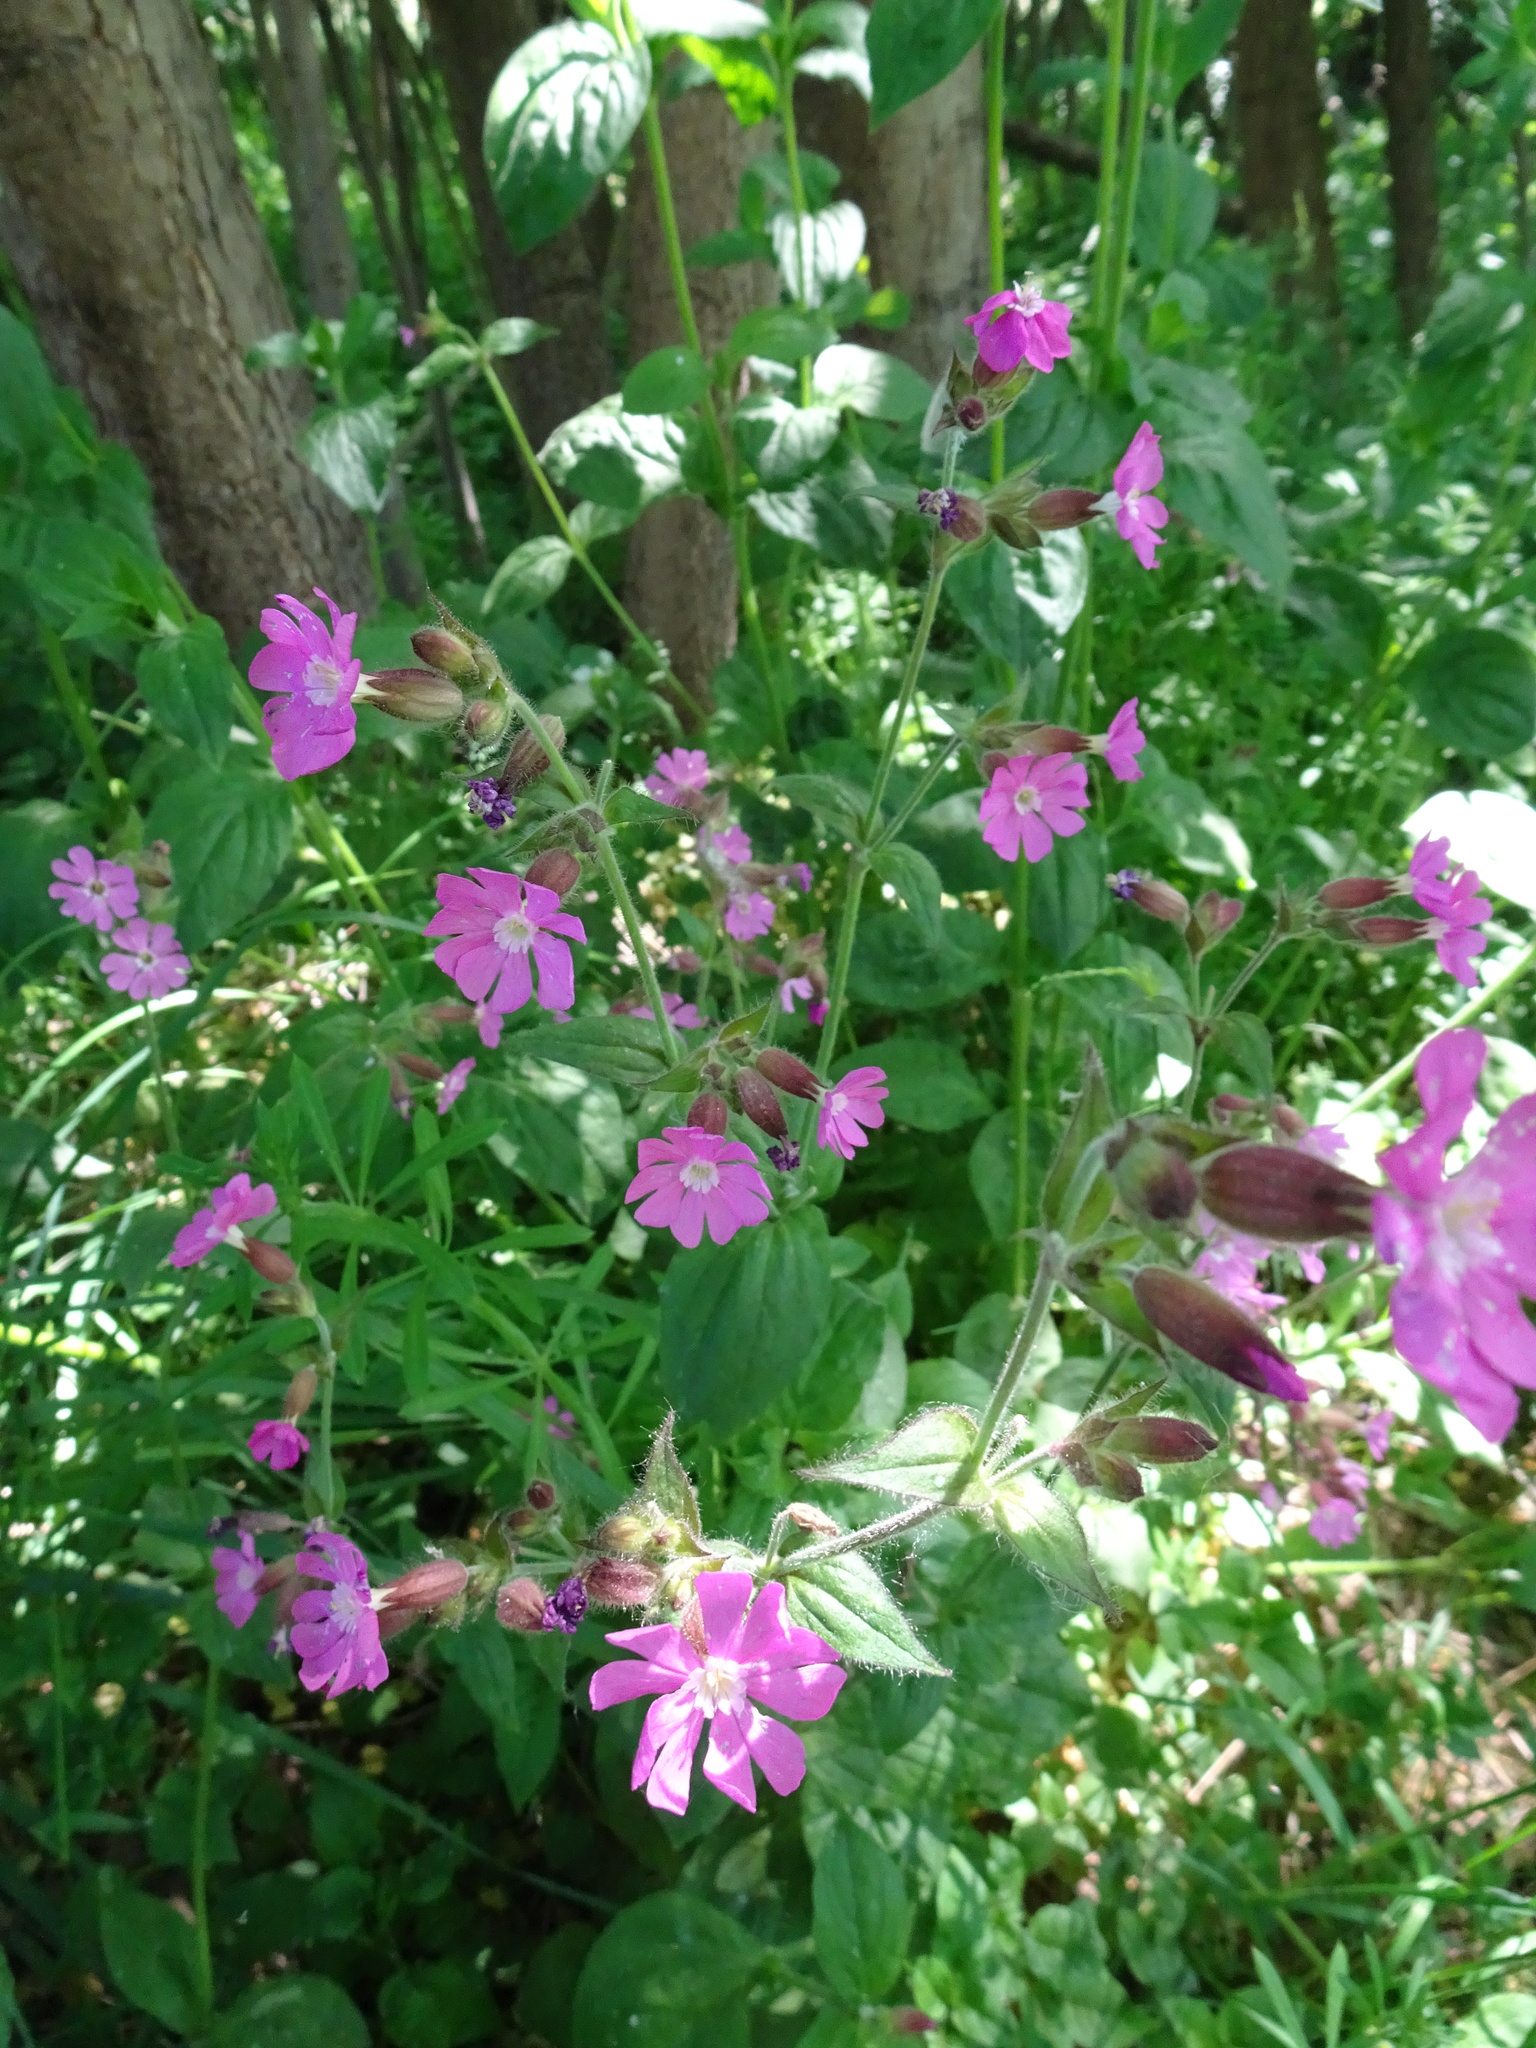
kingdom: Plantae
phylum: Tracheophyta
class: Magnoliopsida
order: Caryophyllales
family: Caryophyllaceae
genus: Silene
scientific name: Silene dioica
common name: Red campion
